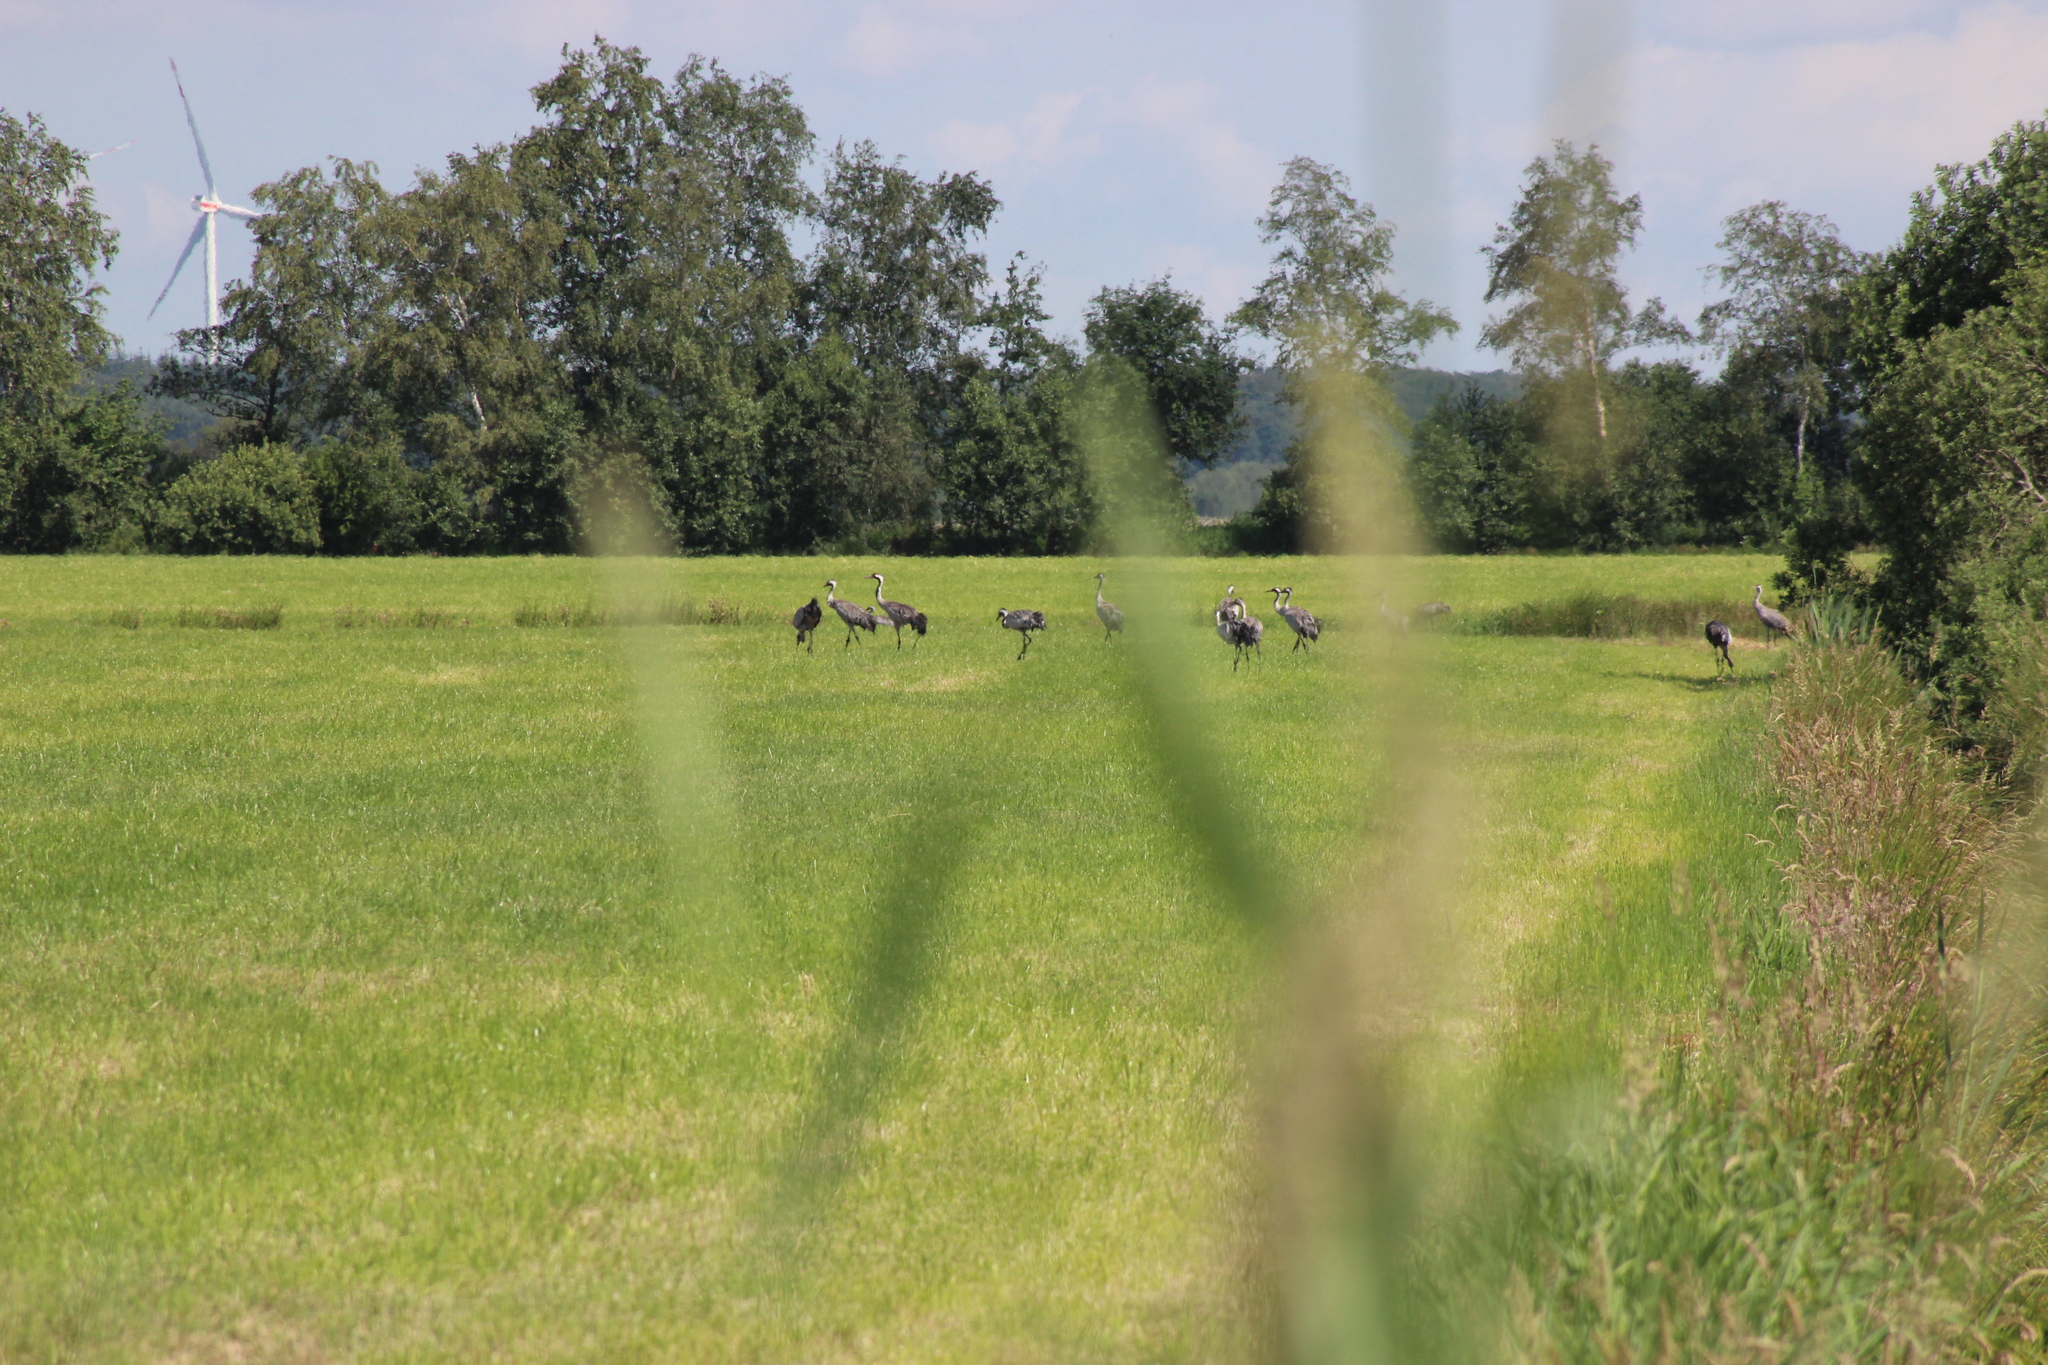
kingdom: Animalia
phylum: Chordata
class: Aves
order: Gruiformes
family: Gruidae
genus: Grus
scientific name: Grus grus
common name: Common crane
